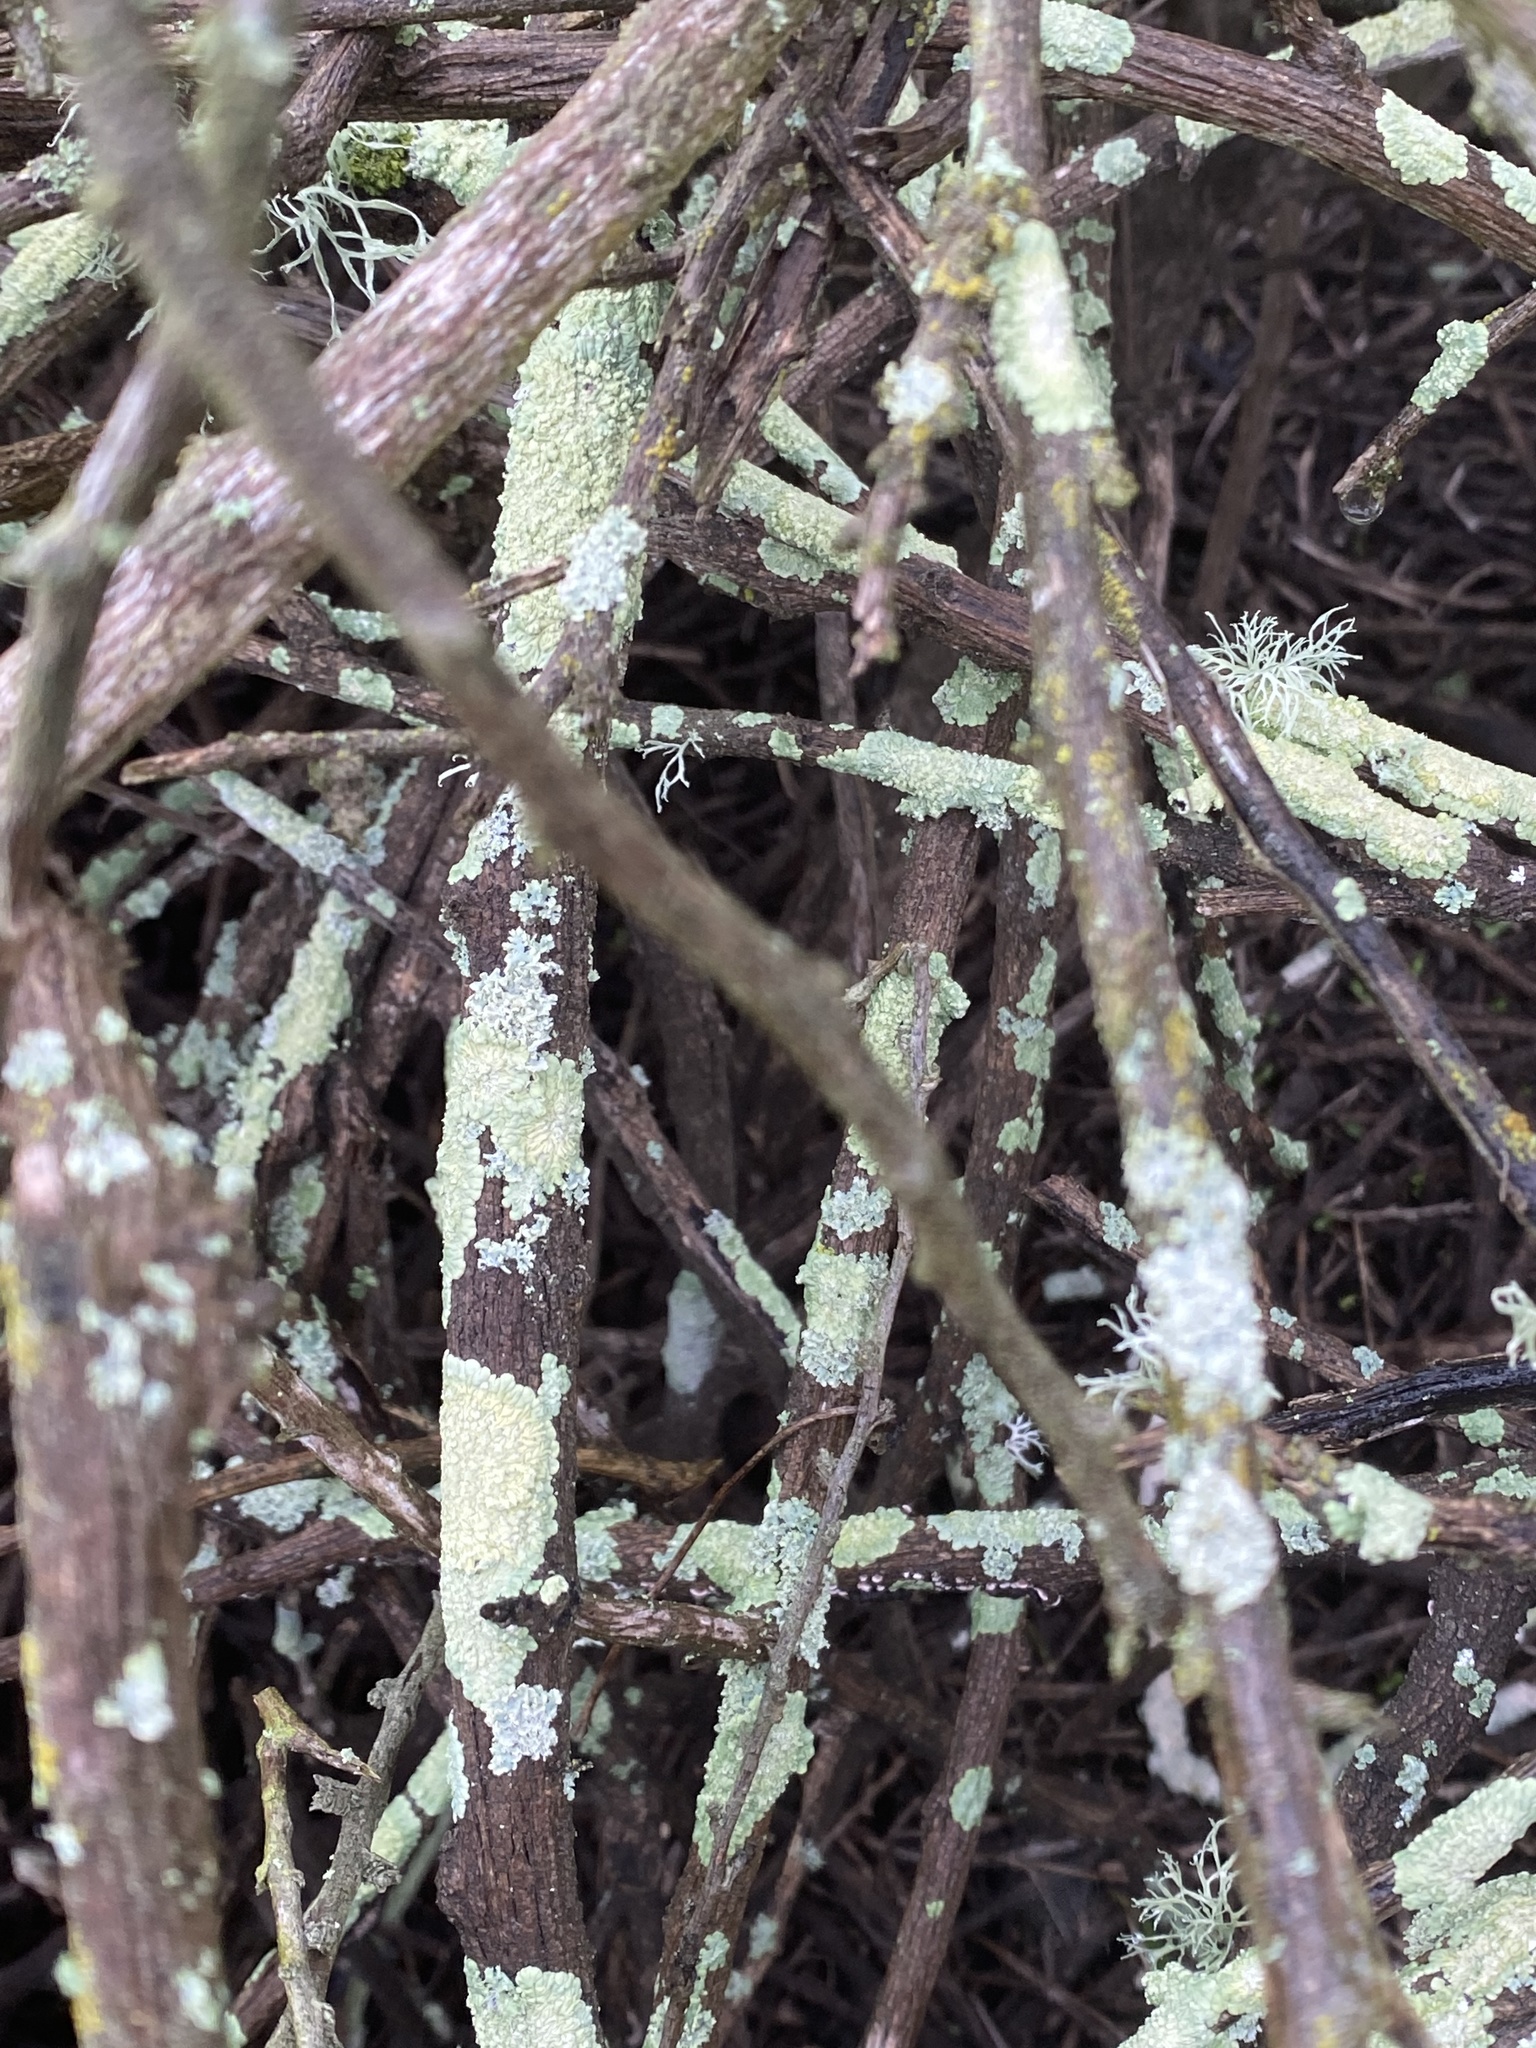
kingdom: Fungi
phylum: Ascomycota
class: Lecanoromycetes
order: Lecanorales
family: Ramalinaceae
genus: Ramalina
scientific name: Ramalina farinacea
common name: Farinose cartilage lichen
